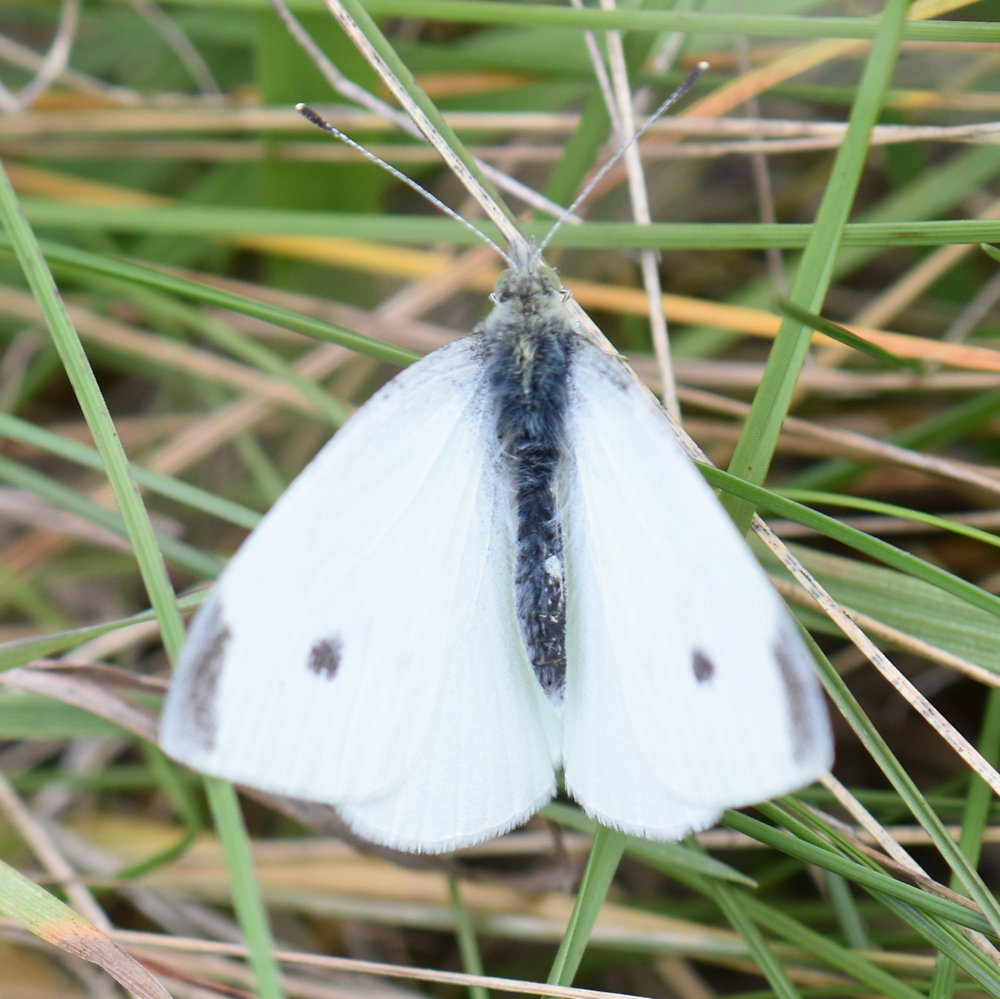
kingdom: Animalia
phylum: Arthropoda
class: Insecta
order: Lepidoptera
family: Pieridae
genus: Pieris
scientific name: Pieris rapae
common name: Small white
